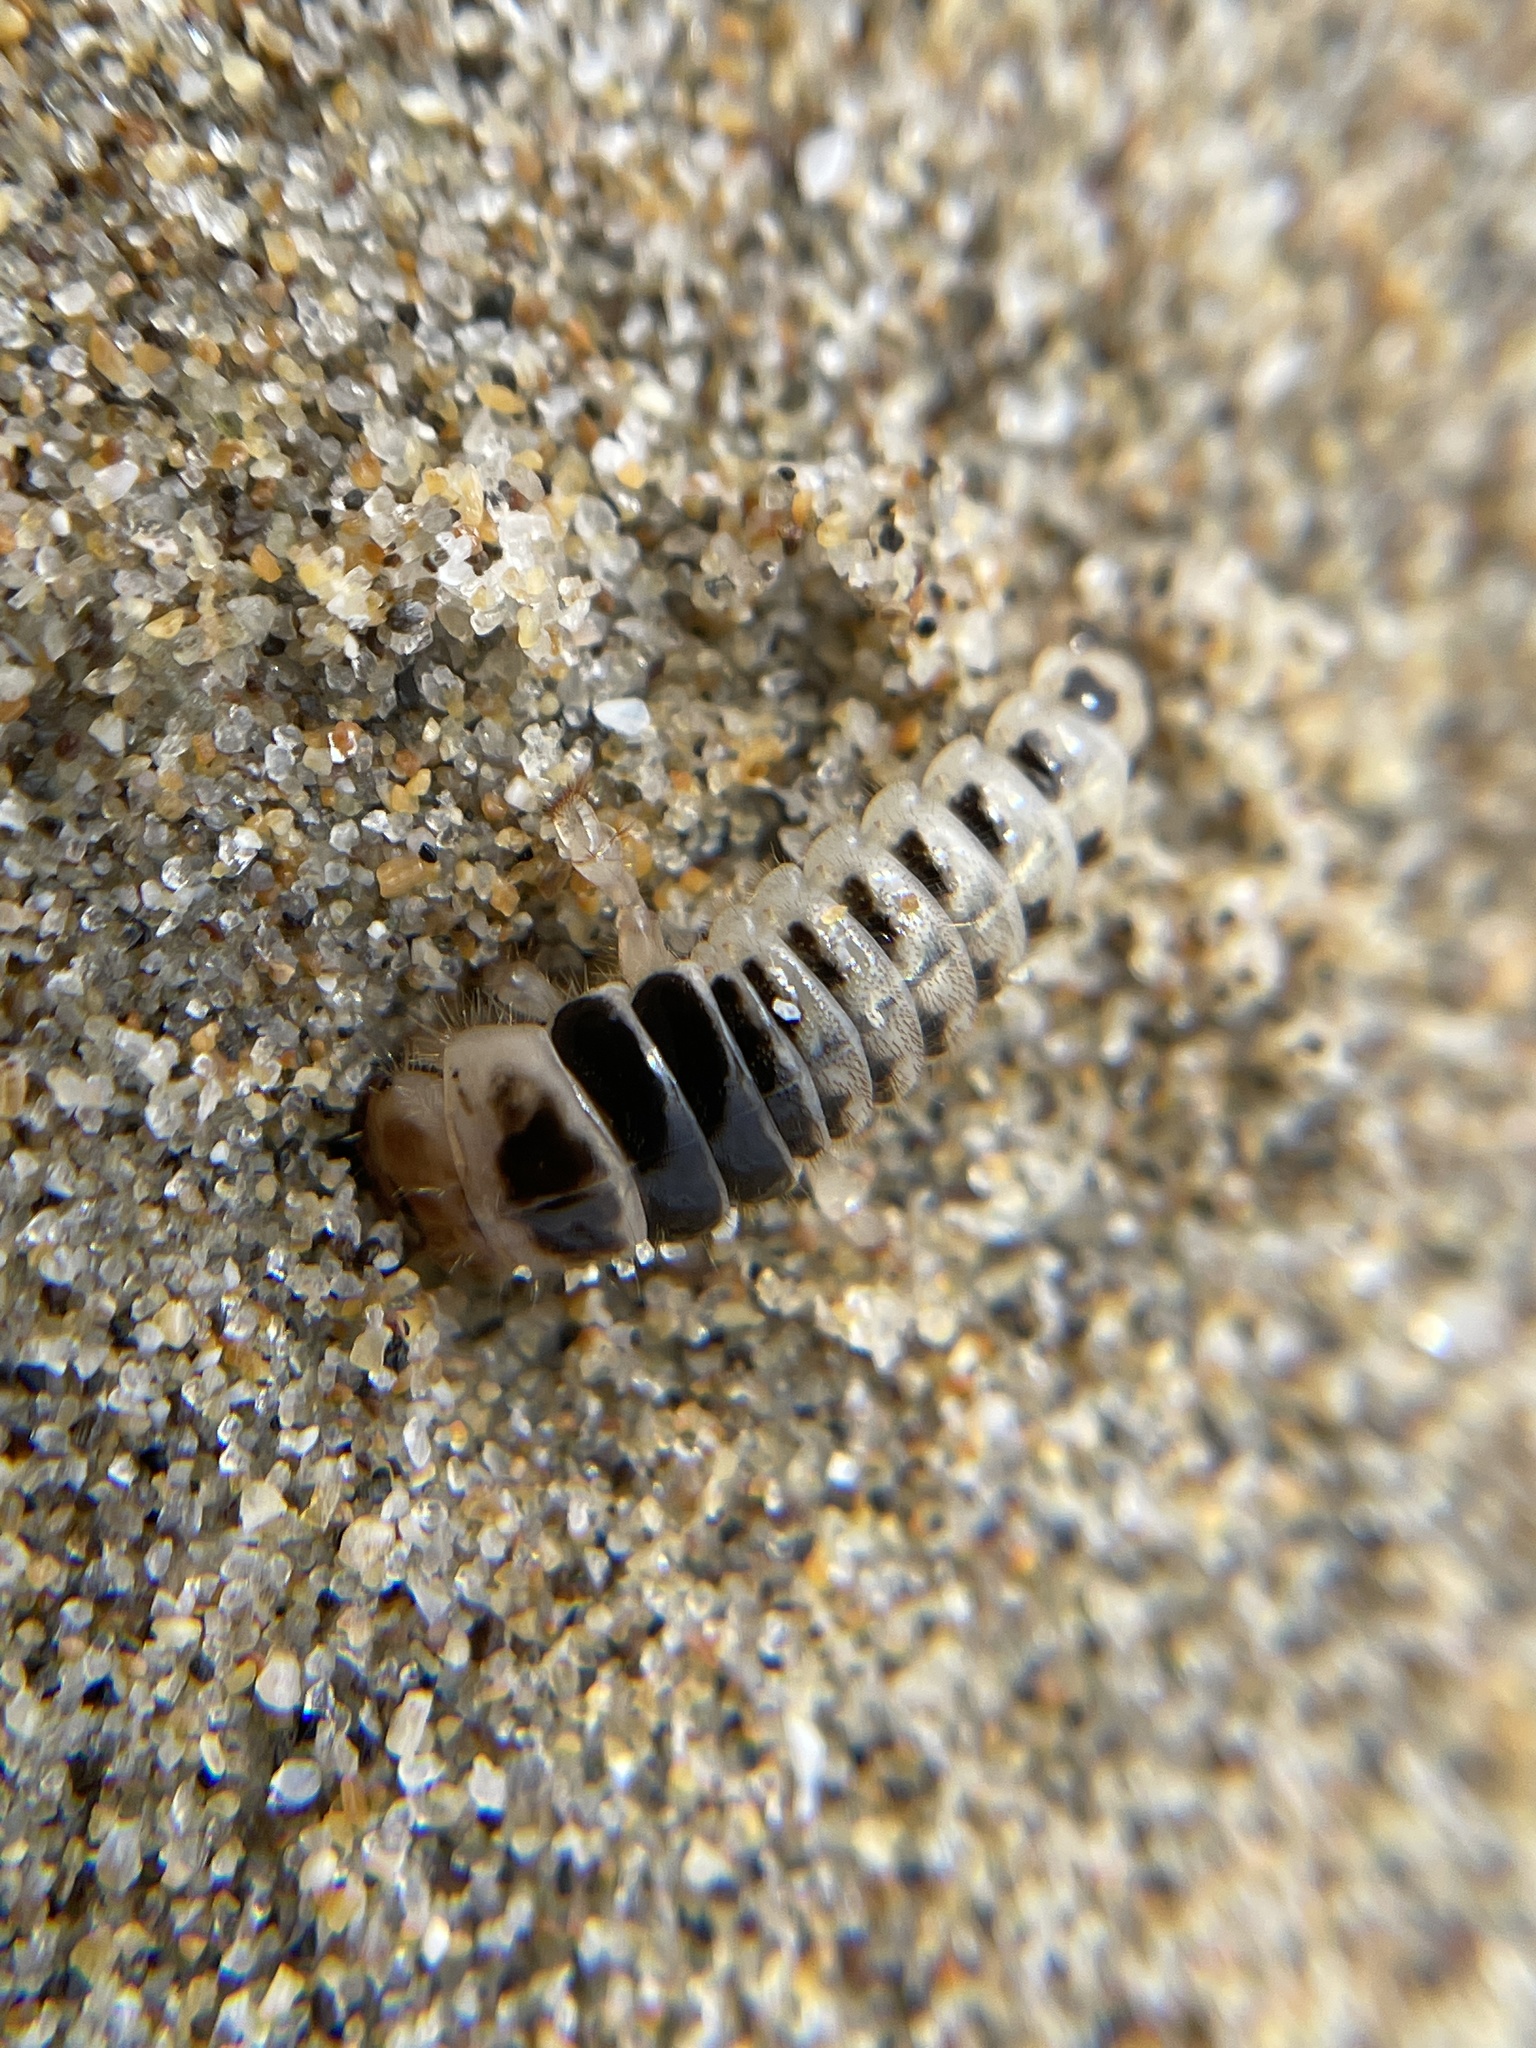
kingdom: Animalia
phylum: Arthropoda
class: Insecta
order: Coleoptera
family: Staphylinidae
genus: Thinopinus
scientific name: Thinopinus pictus
